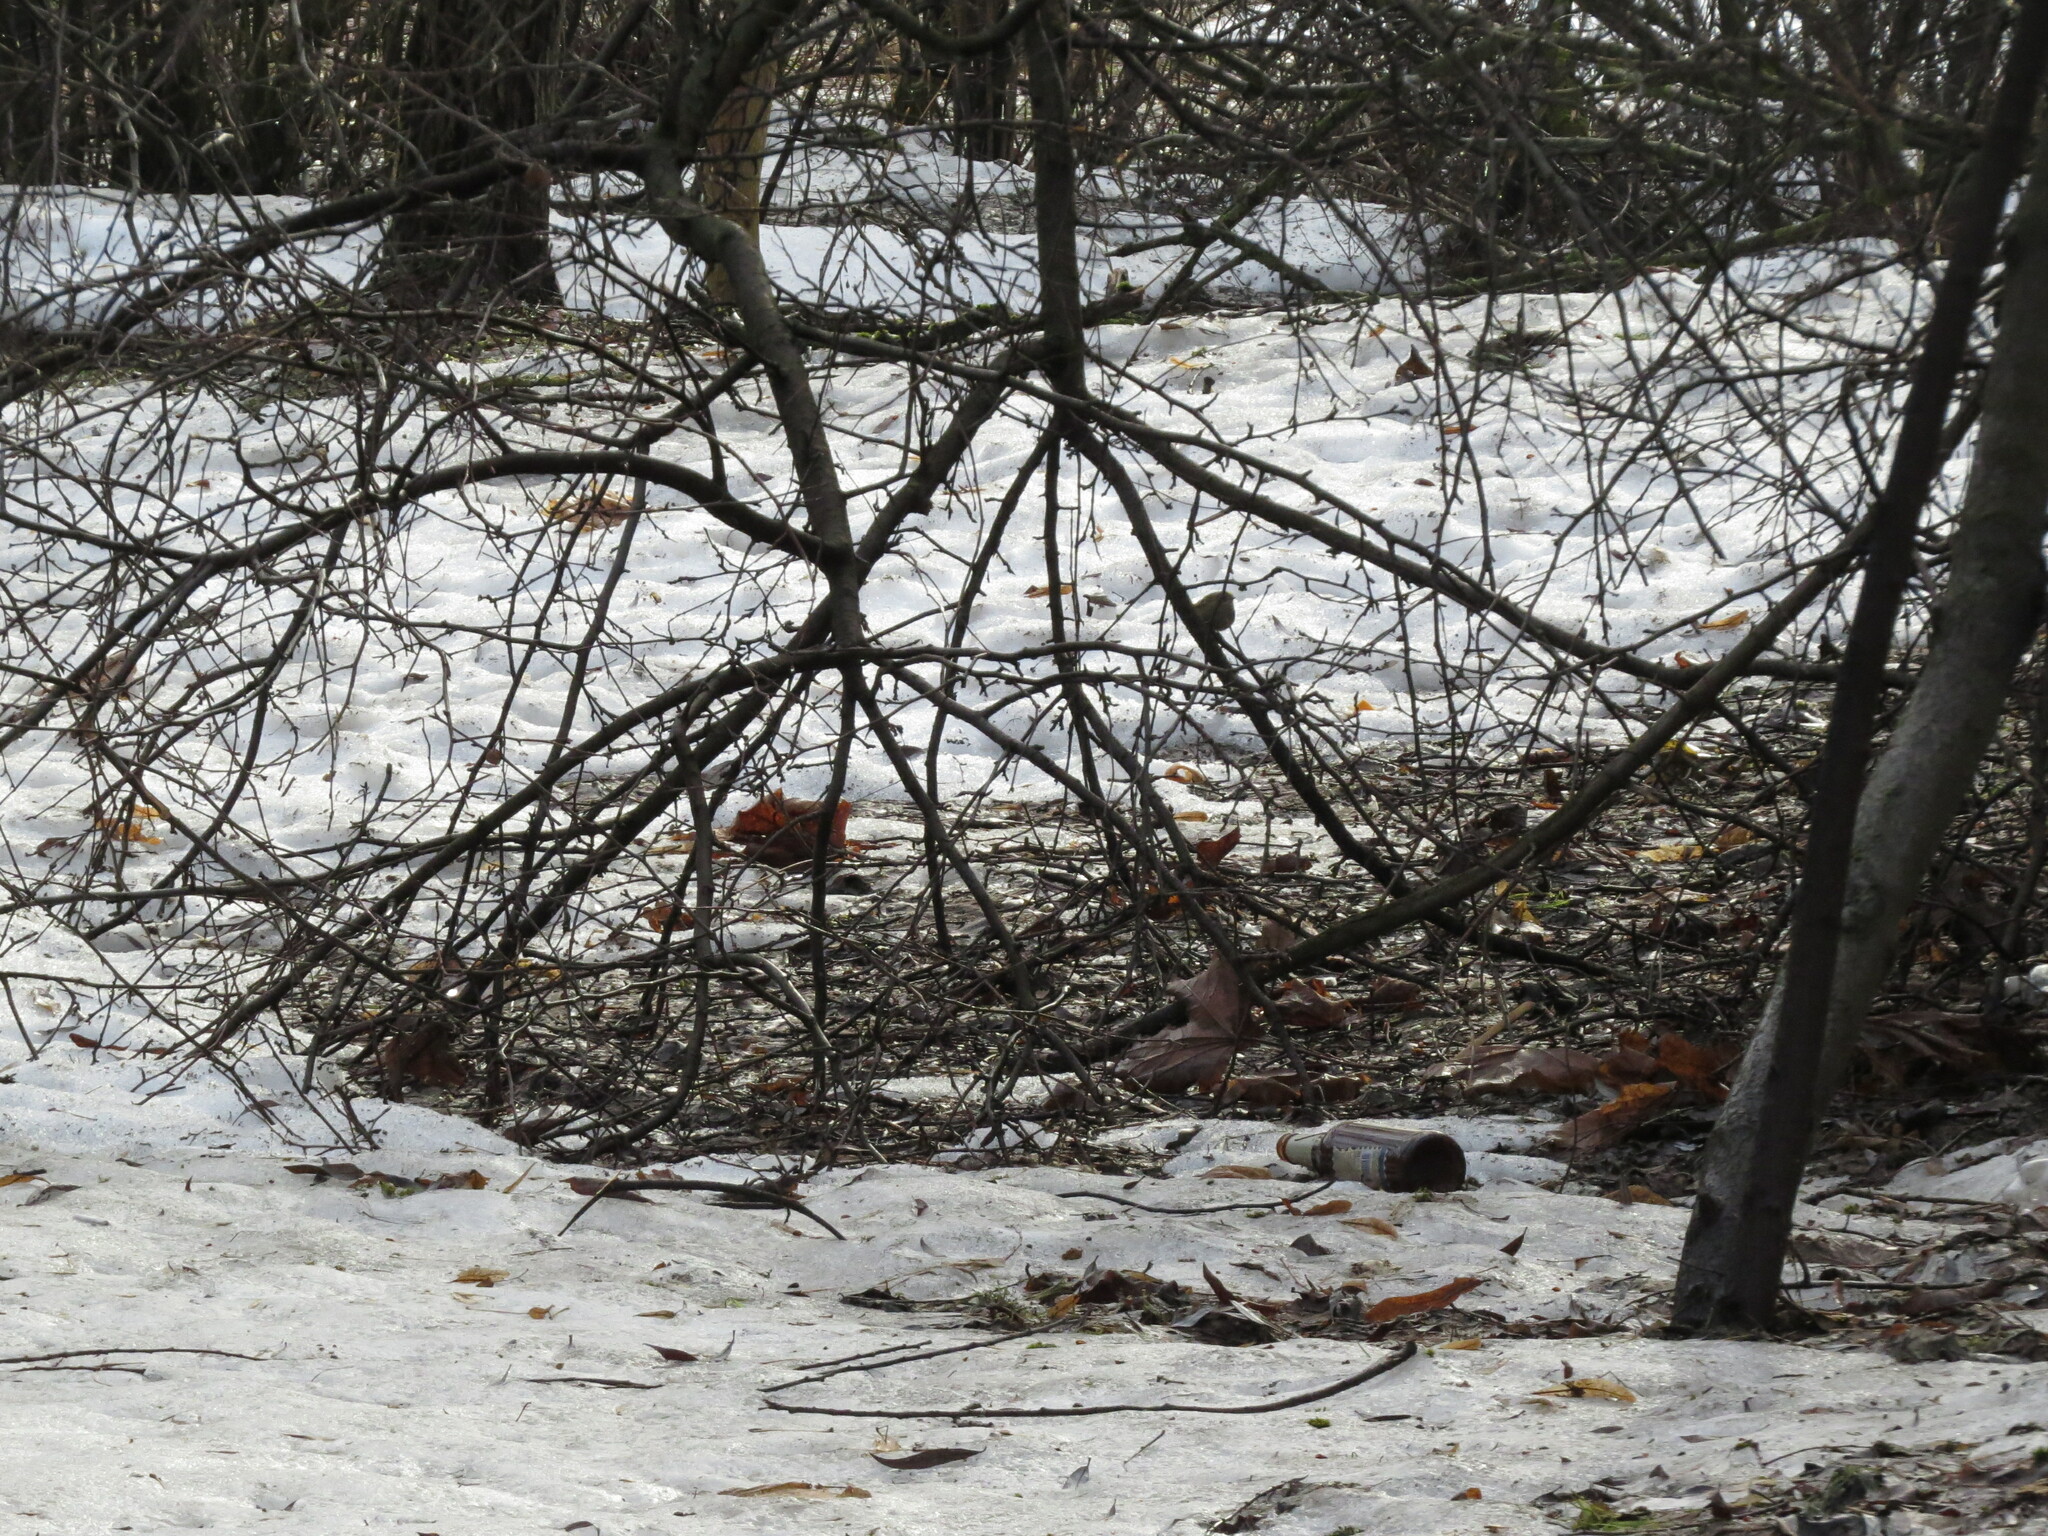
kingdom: Animalia
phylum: Chordata
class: Aves
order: Passeriformes
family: Regulidae
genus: Regulus
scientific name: Regulus regulus
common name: Goldcrest
